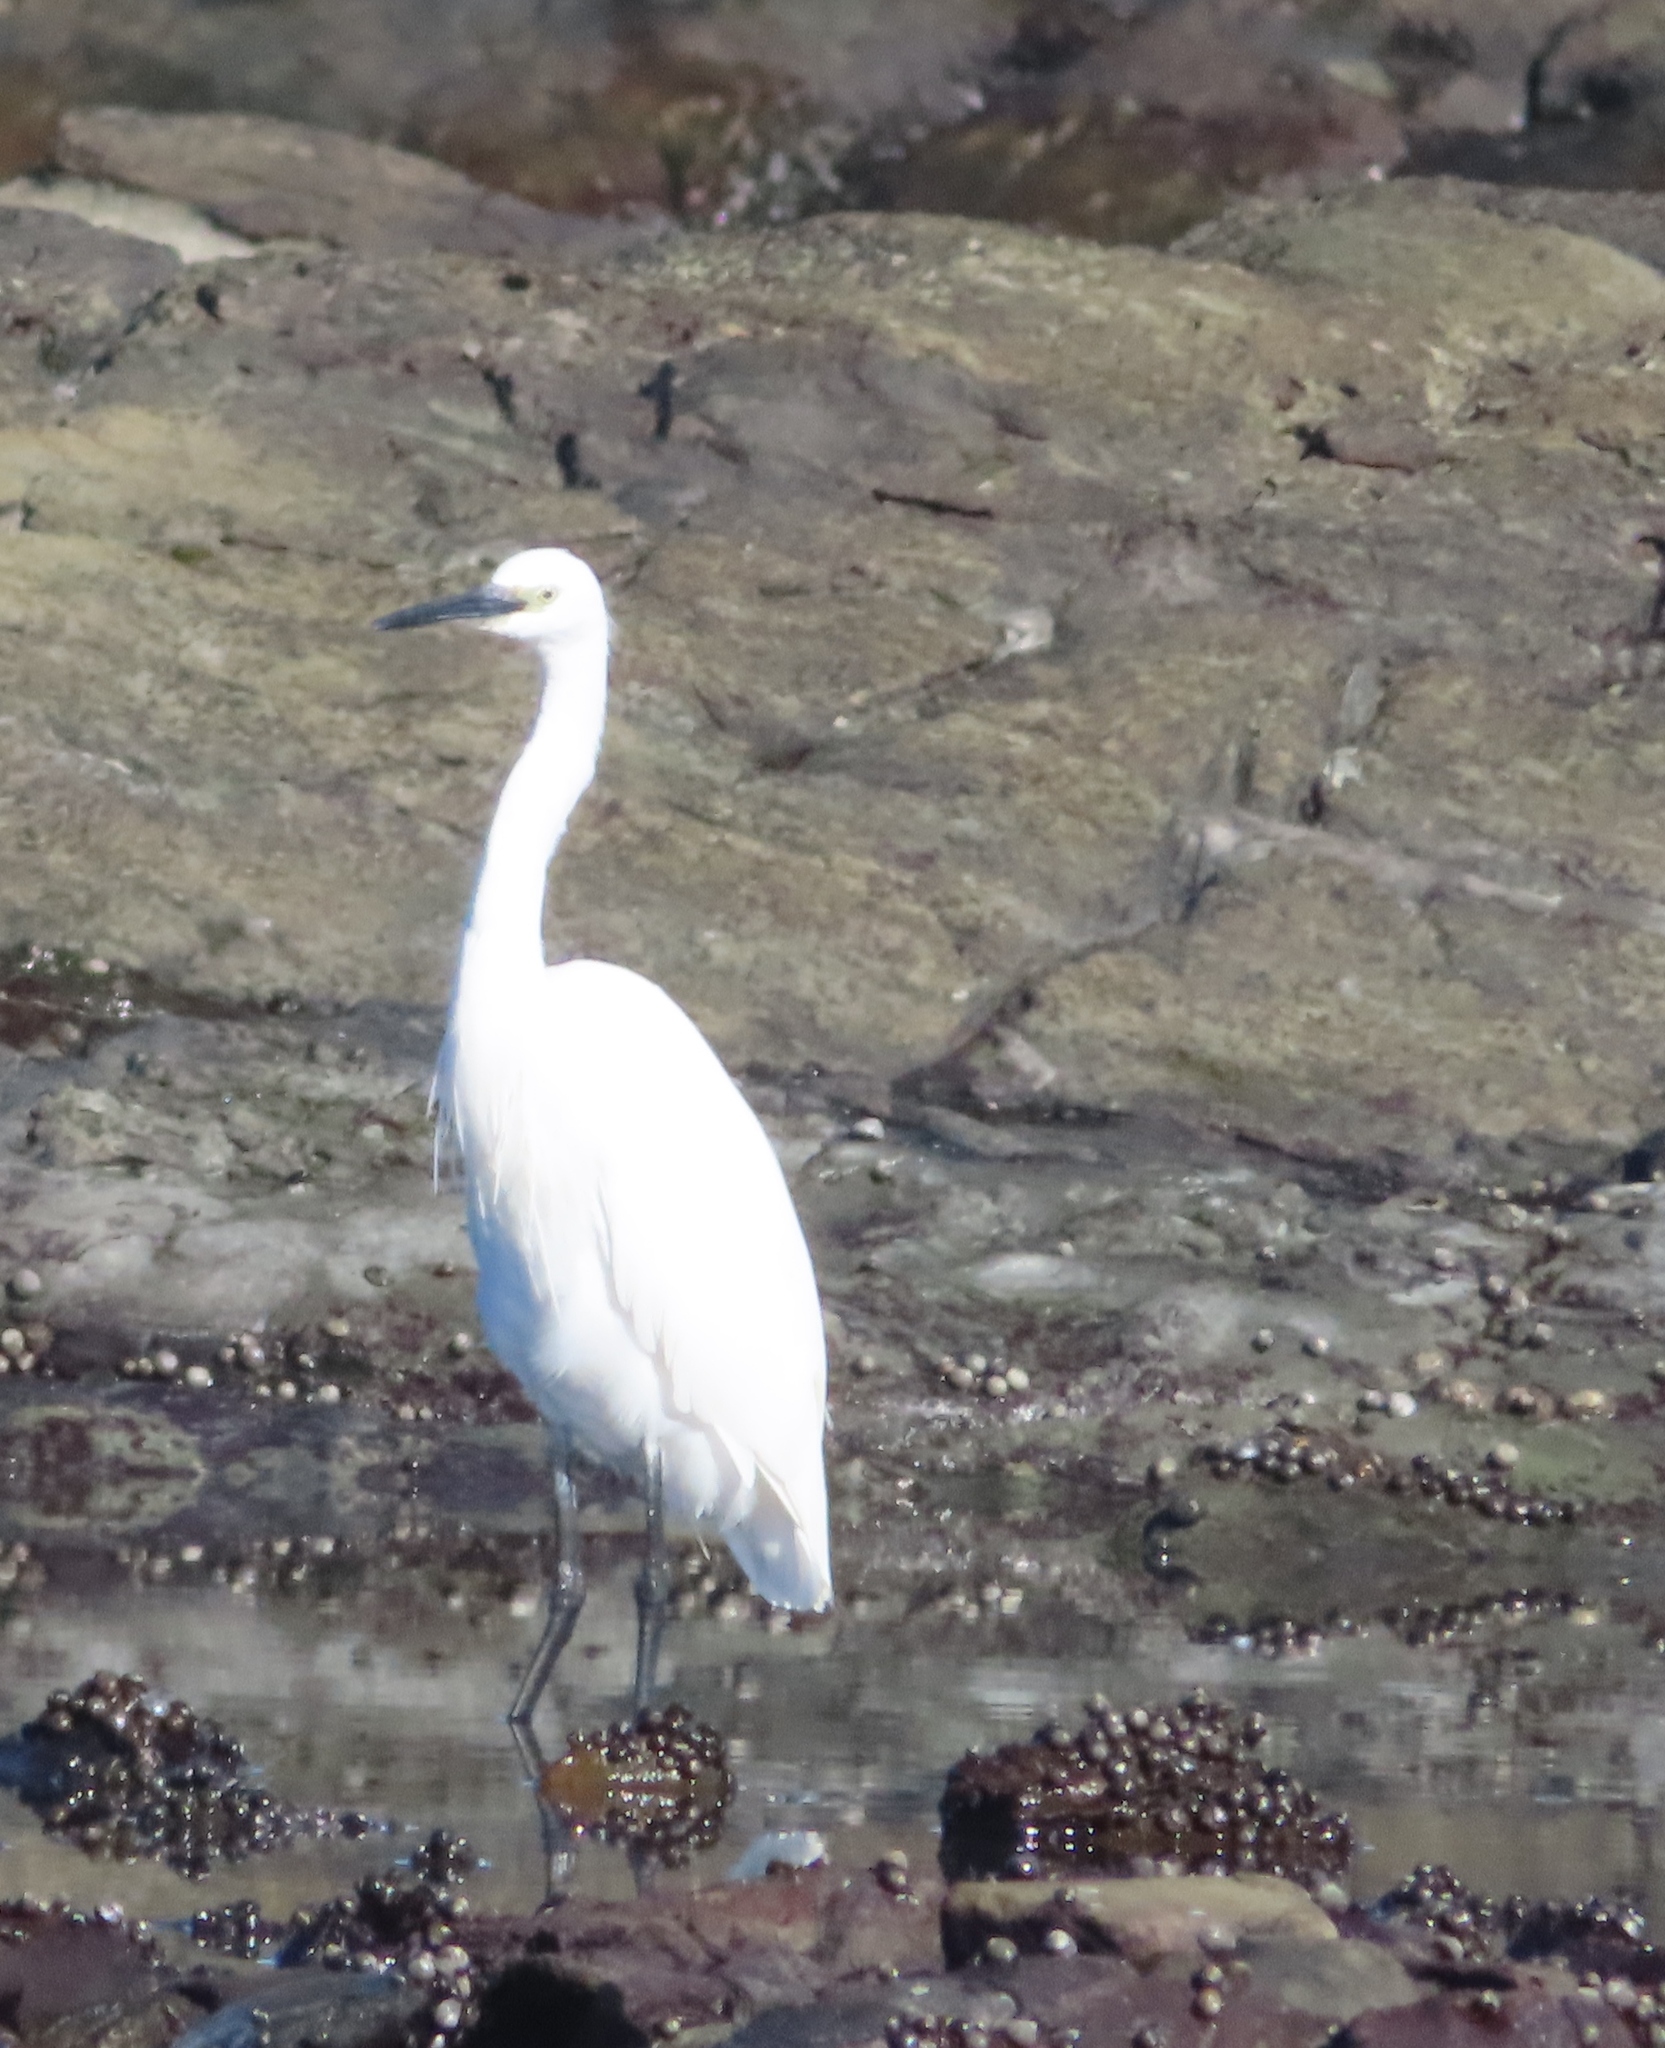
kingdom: Animalia
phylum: Chordata
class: Aves
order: Pelecaniformes
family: Ardeidae
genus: Egretta
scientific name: Egretta garzetta
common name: Little egret
